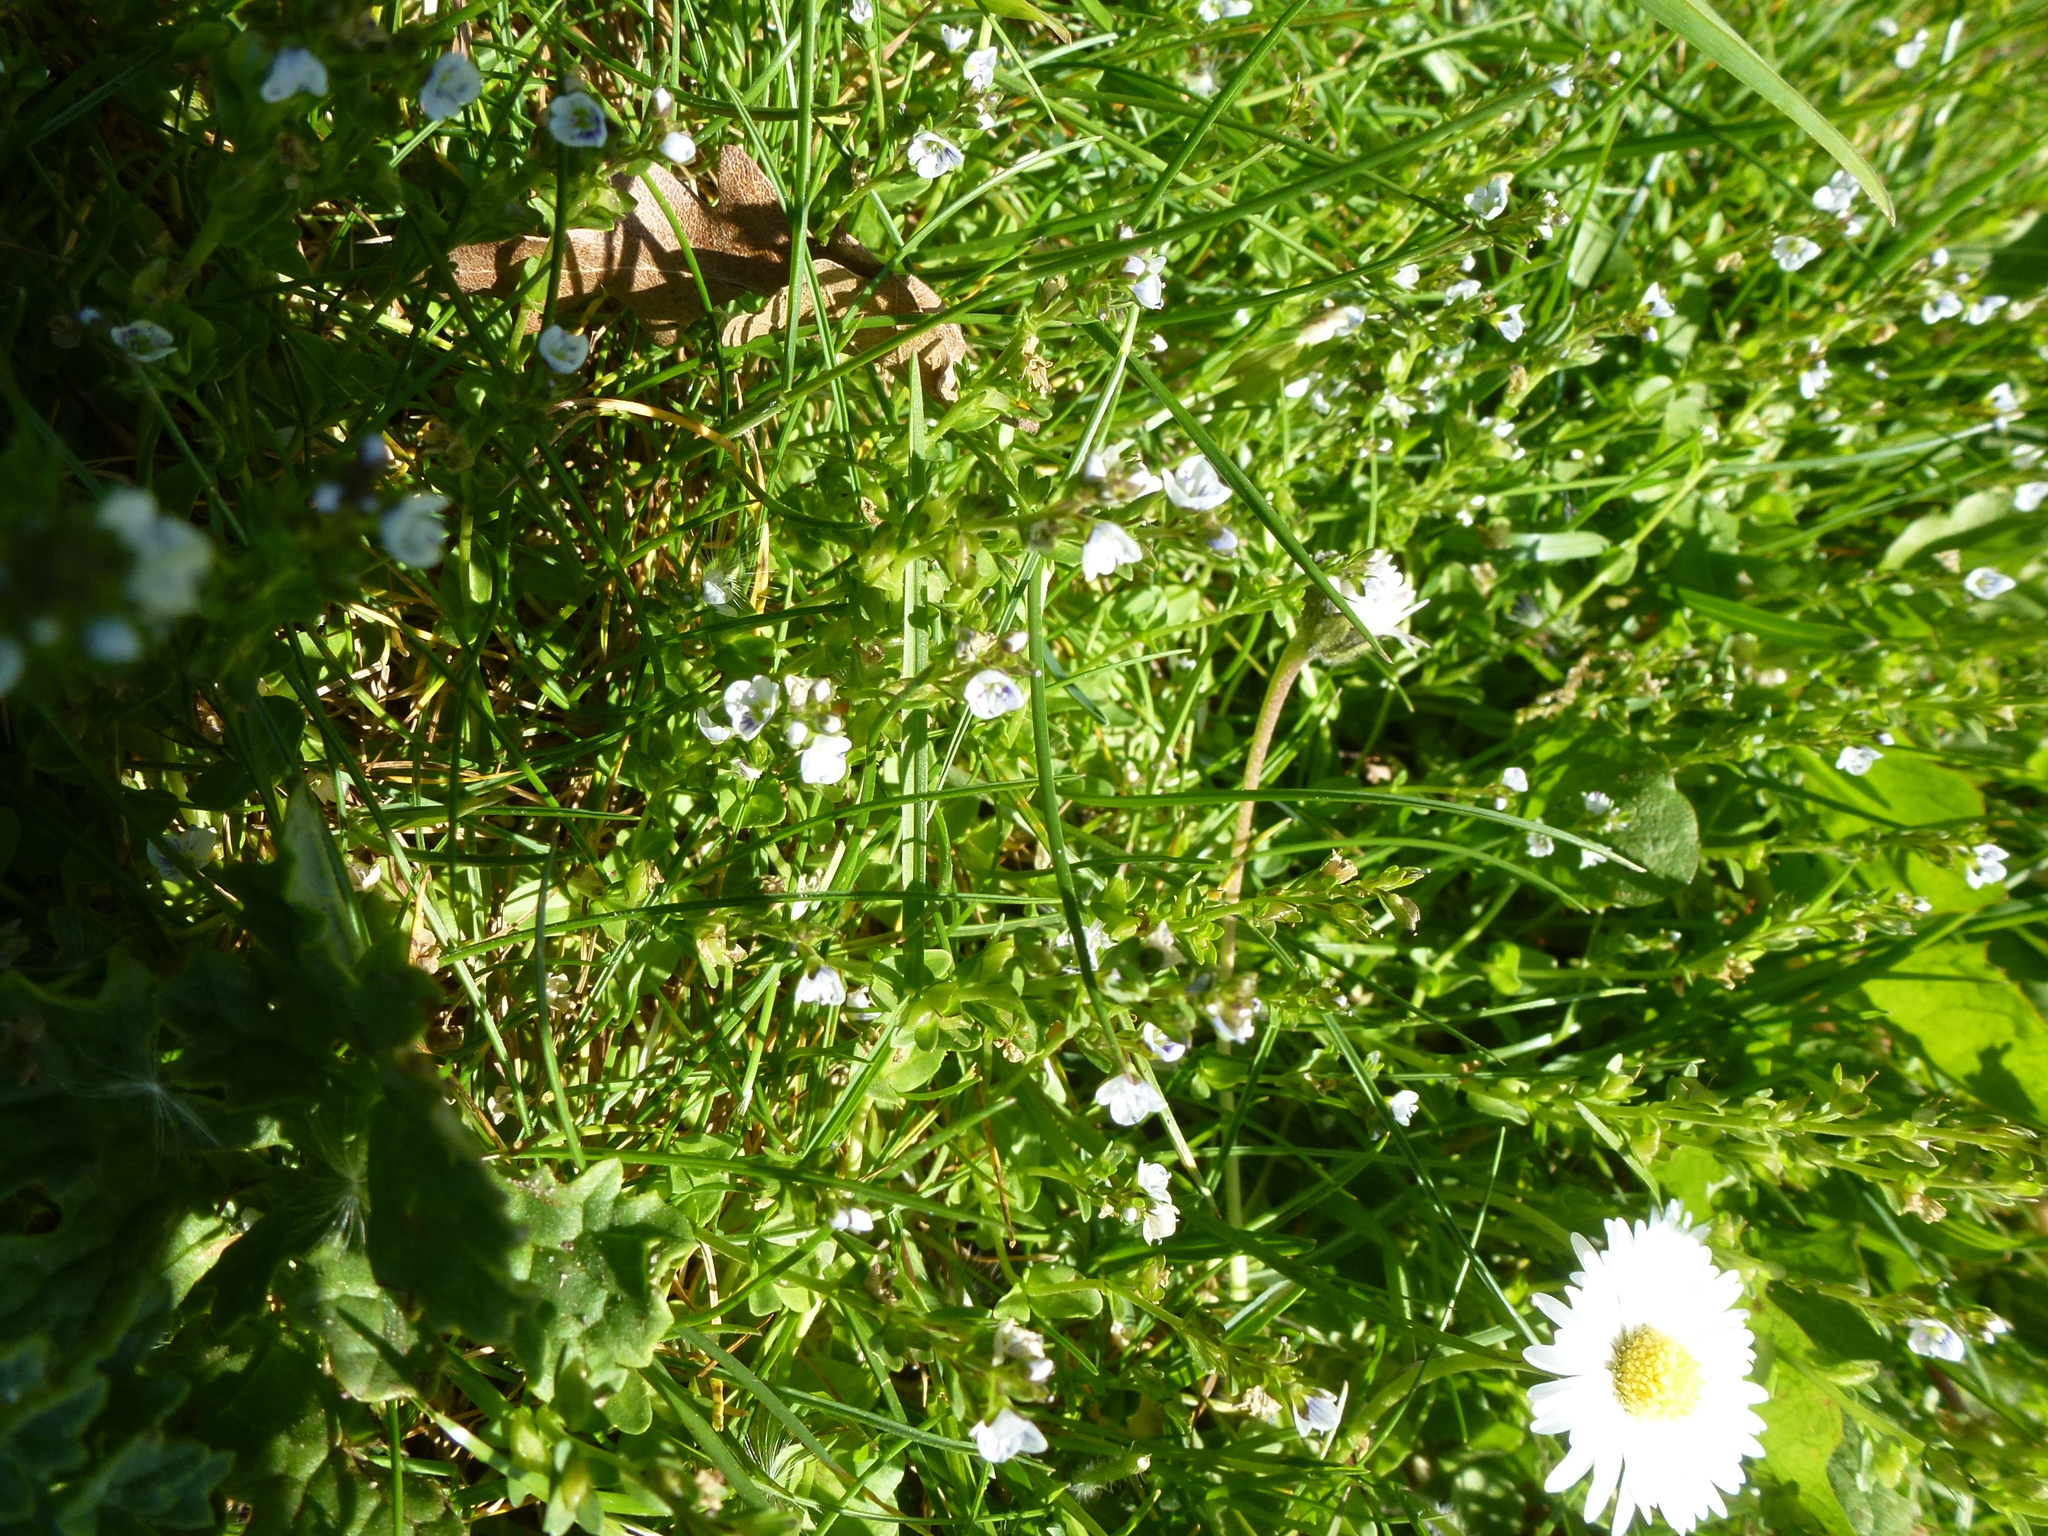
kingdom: Plantae
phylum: Tracheophyta
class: Magnoliopsida
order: Lamiales
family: Plantaginaceae
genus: Veronica
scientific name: Veronica serpyllifolia
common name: Thyme-leaved speedwell
